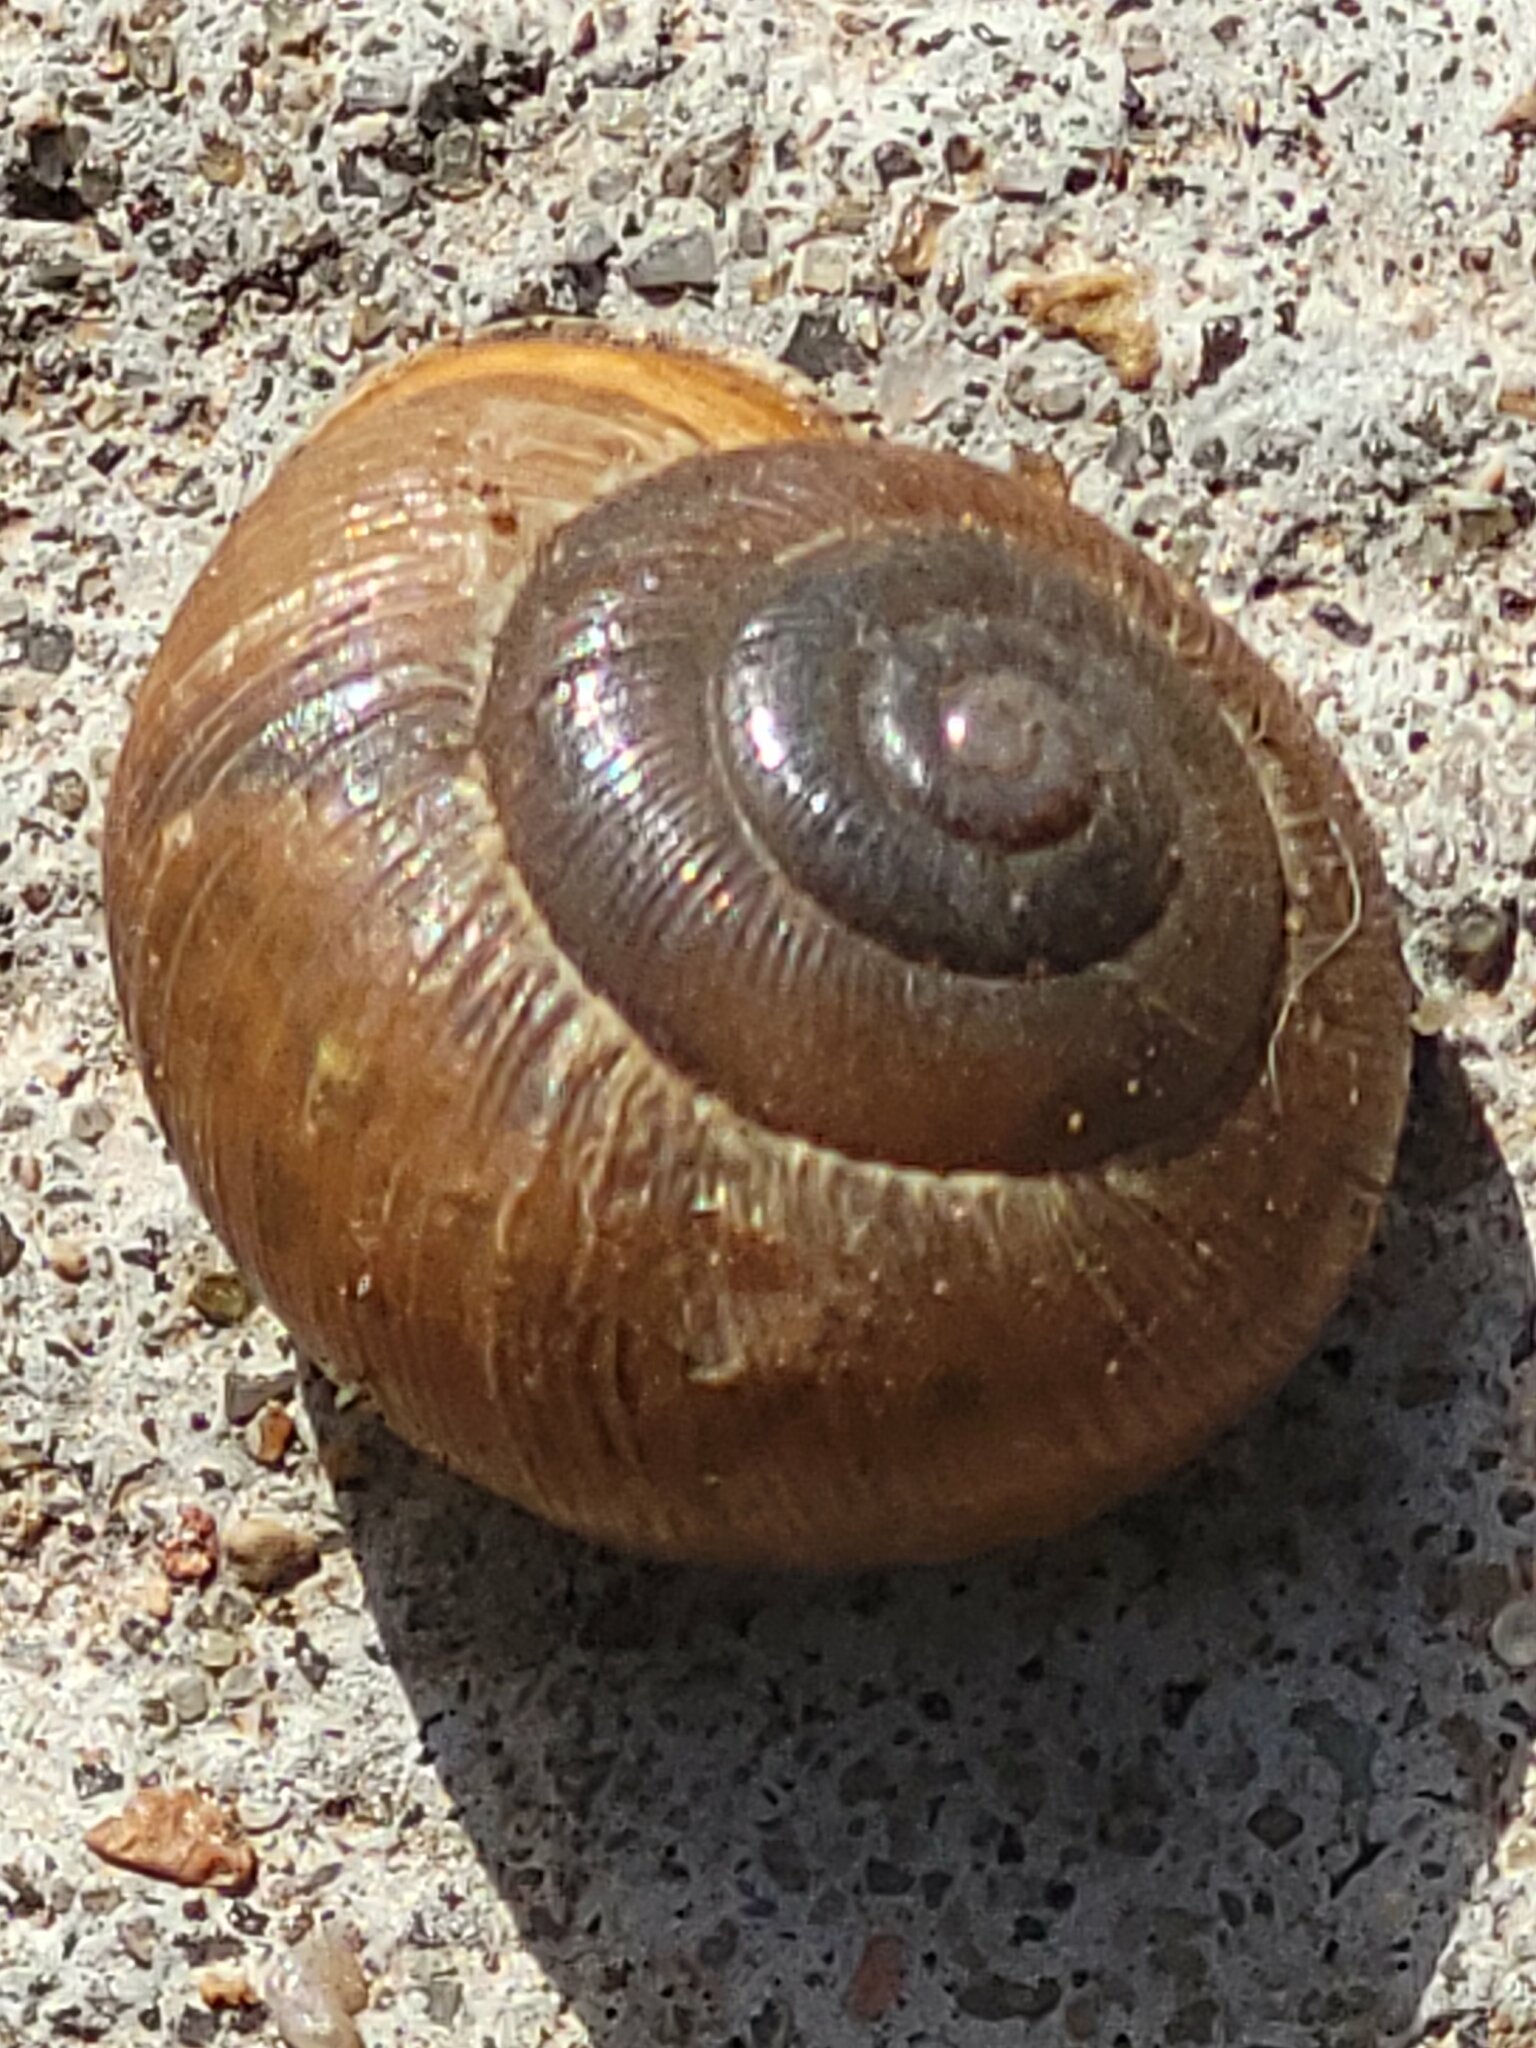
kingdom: Animalia
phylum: Mollusca
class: Gastropoda
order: Stylommatophora
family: Polygyridae
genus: Mesodon
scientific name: Mesodon thyroidus
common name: White-lip globe
